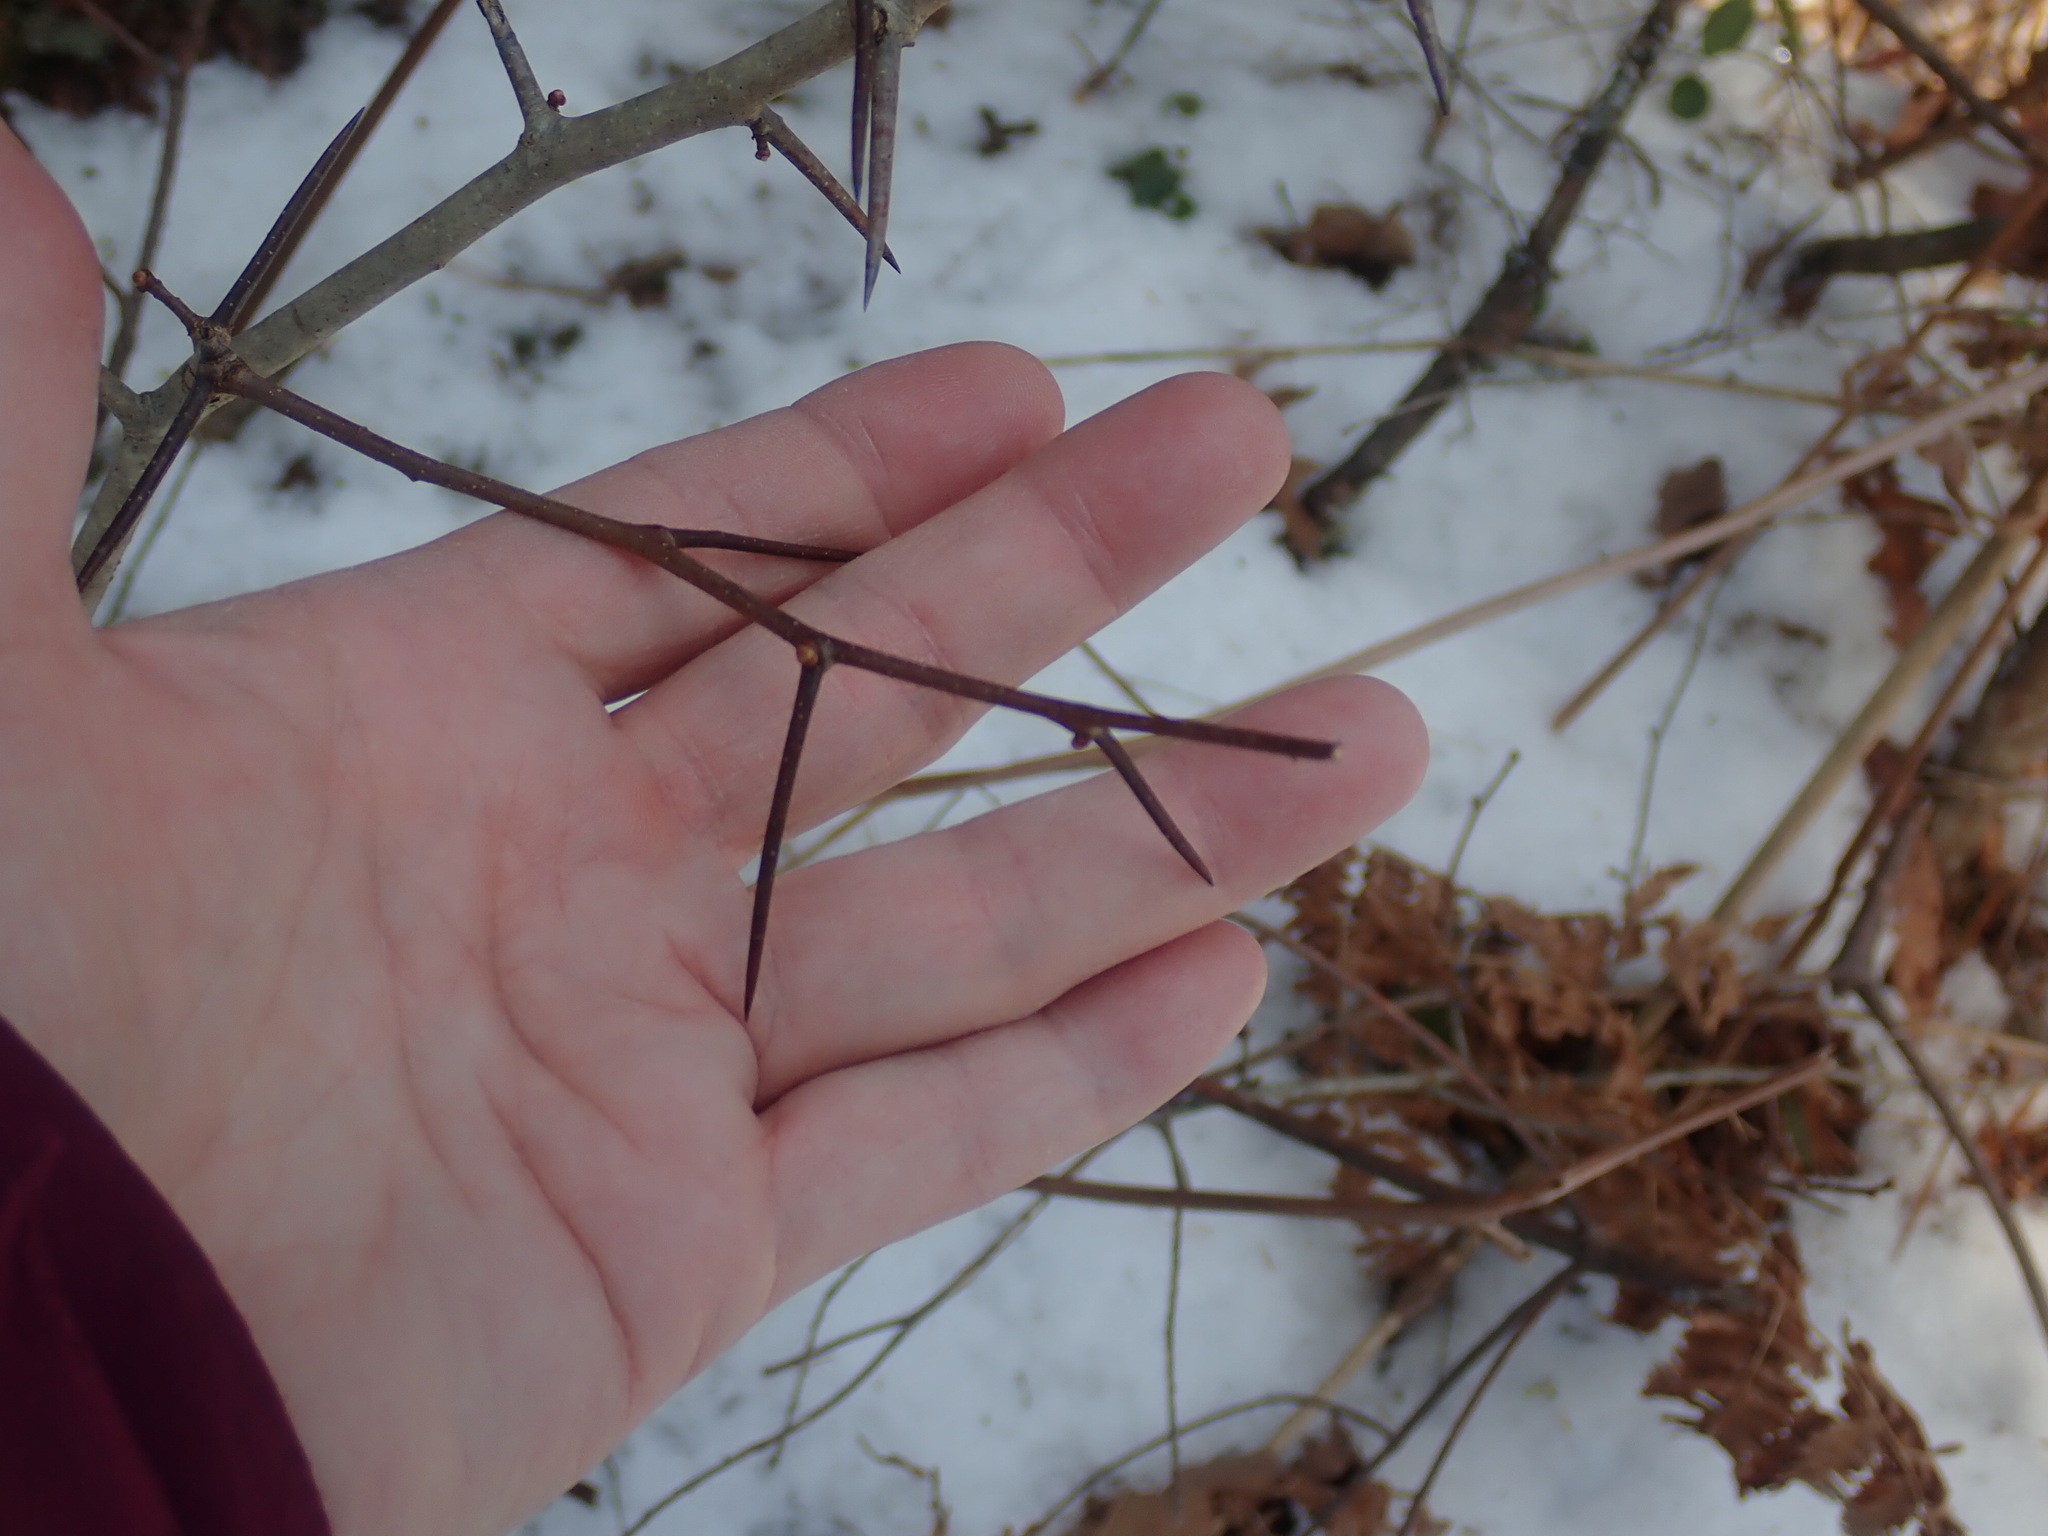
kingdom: Plantae
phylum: Tracheophyta
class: Magnoliopsida
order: Rosales
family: Rosaceae
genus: Crataegus
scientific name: Crataegus
